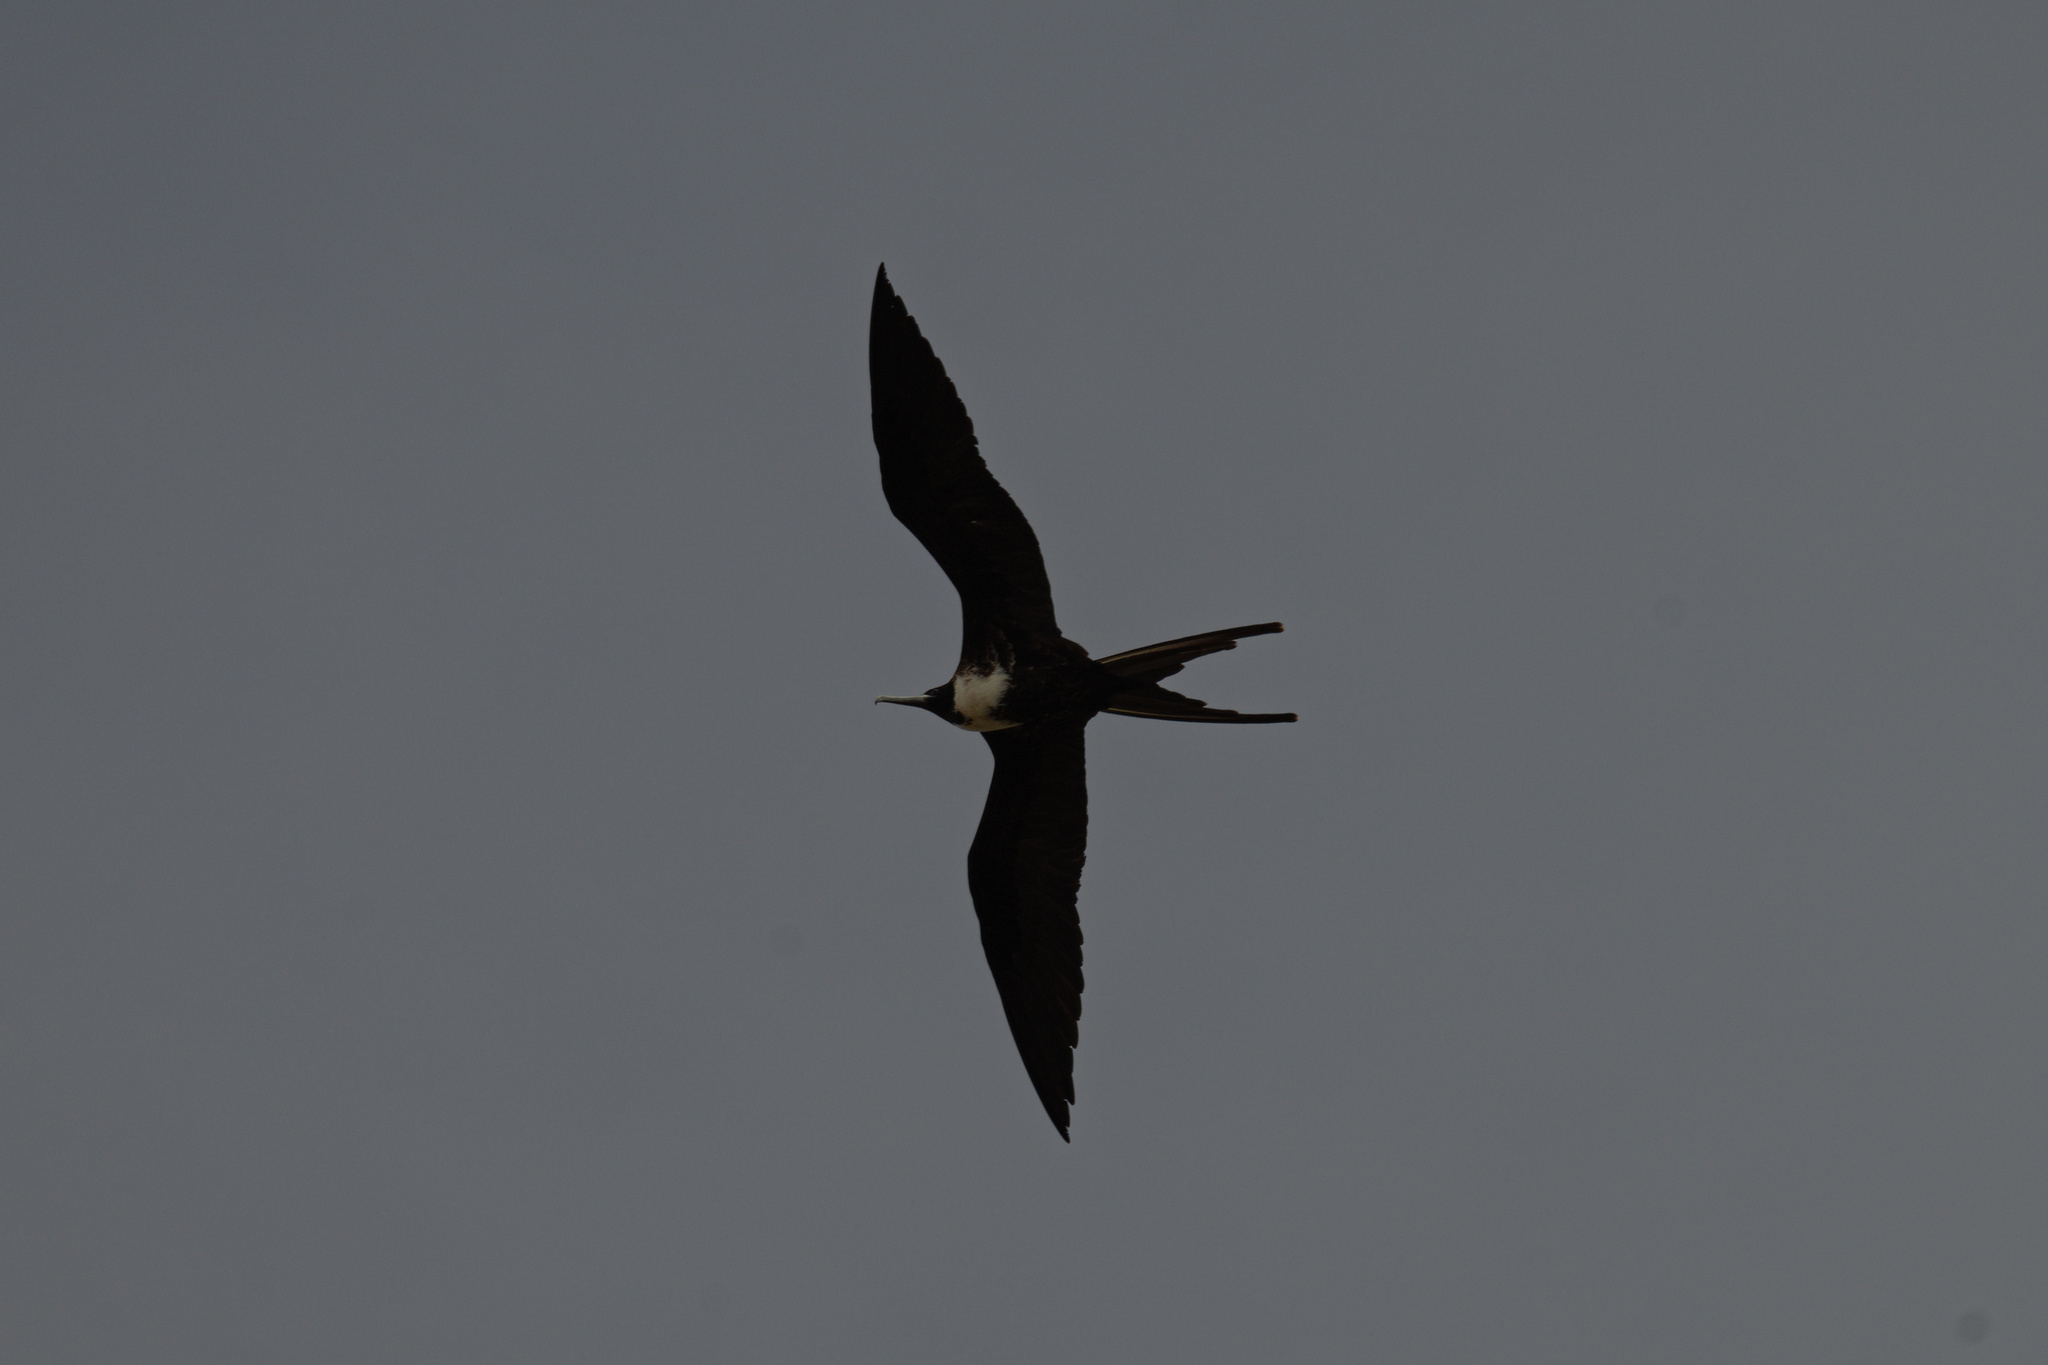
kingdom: Animalia
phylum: Chordata
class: Aves
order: Suliformes
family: Fregatidae
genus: Fregata
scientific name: Fregata magnificens
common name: Magnificent frigatebird
